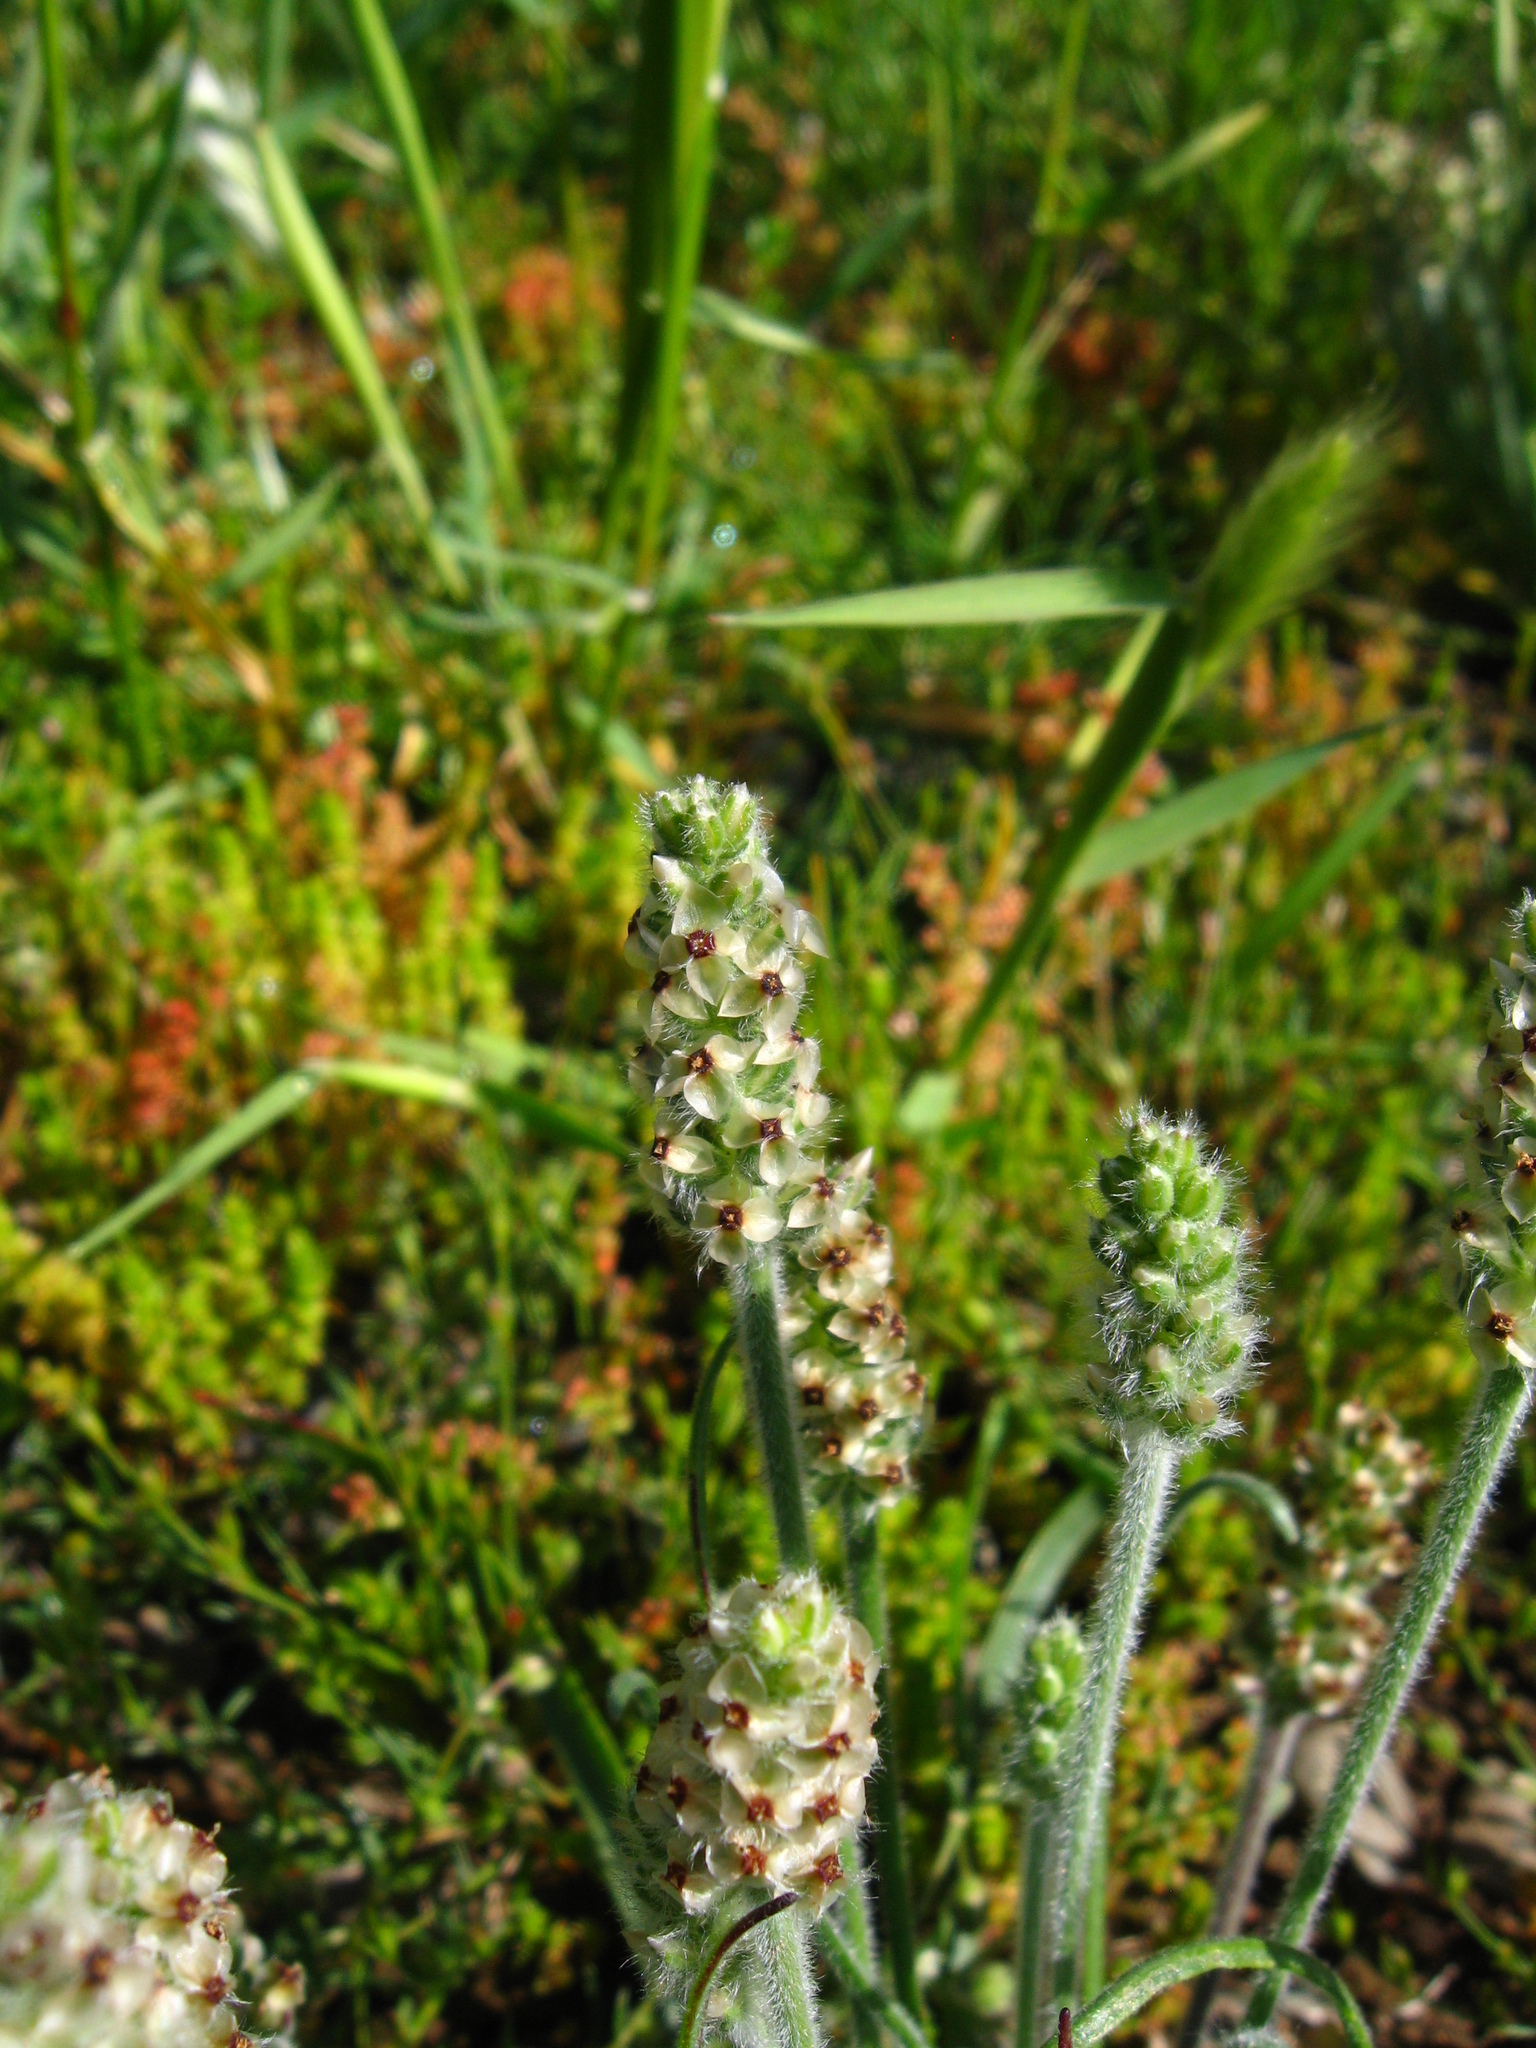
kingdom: Plantae
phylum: Tracheophyta
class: Magnoliopsida
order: Lamiales
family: Plantaginaceae
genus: Plantago
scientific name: Plantago erecta
